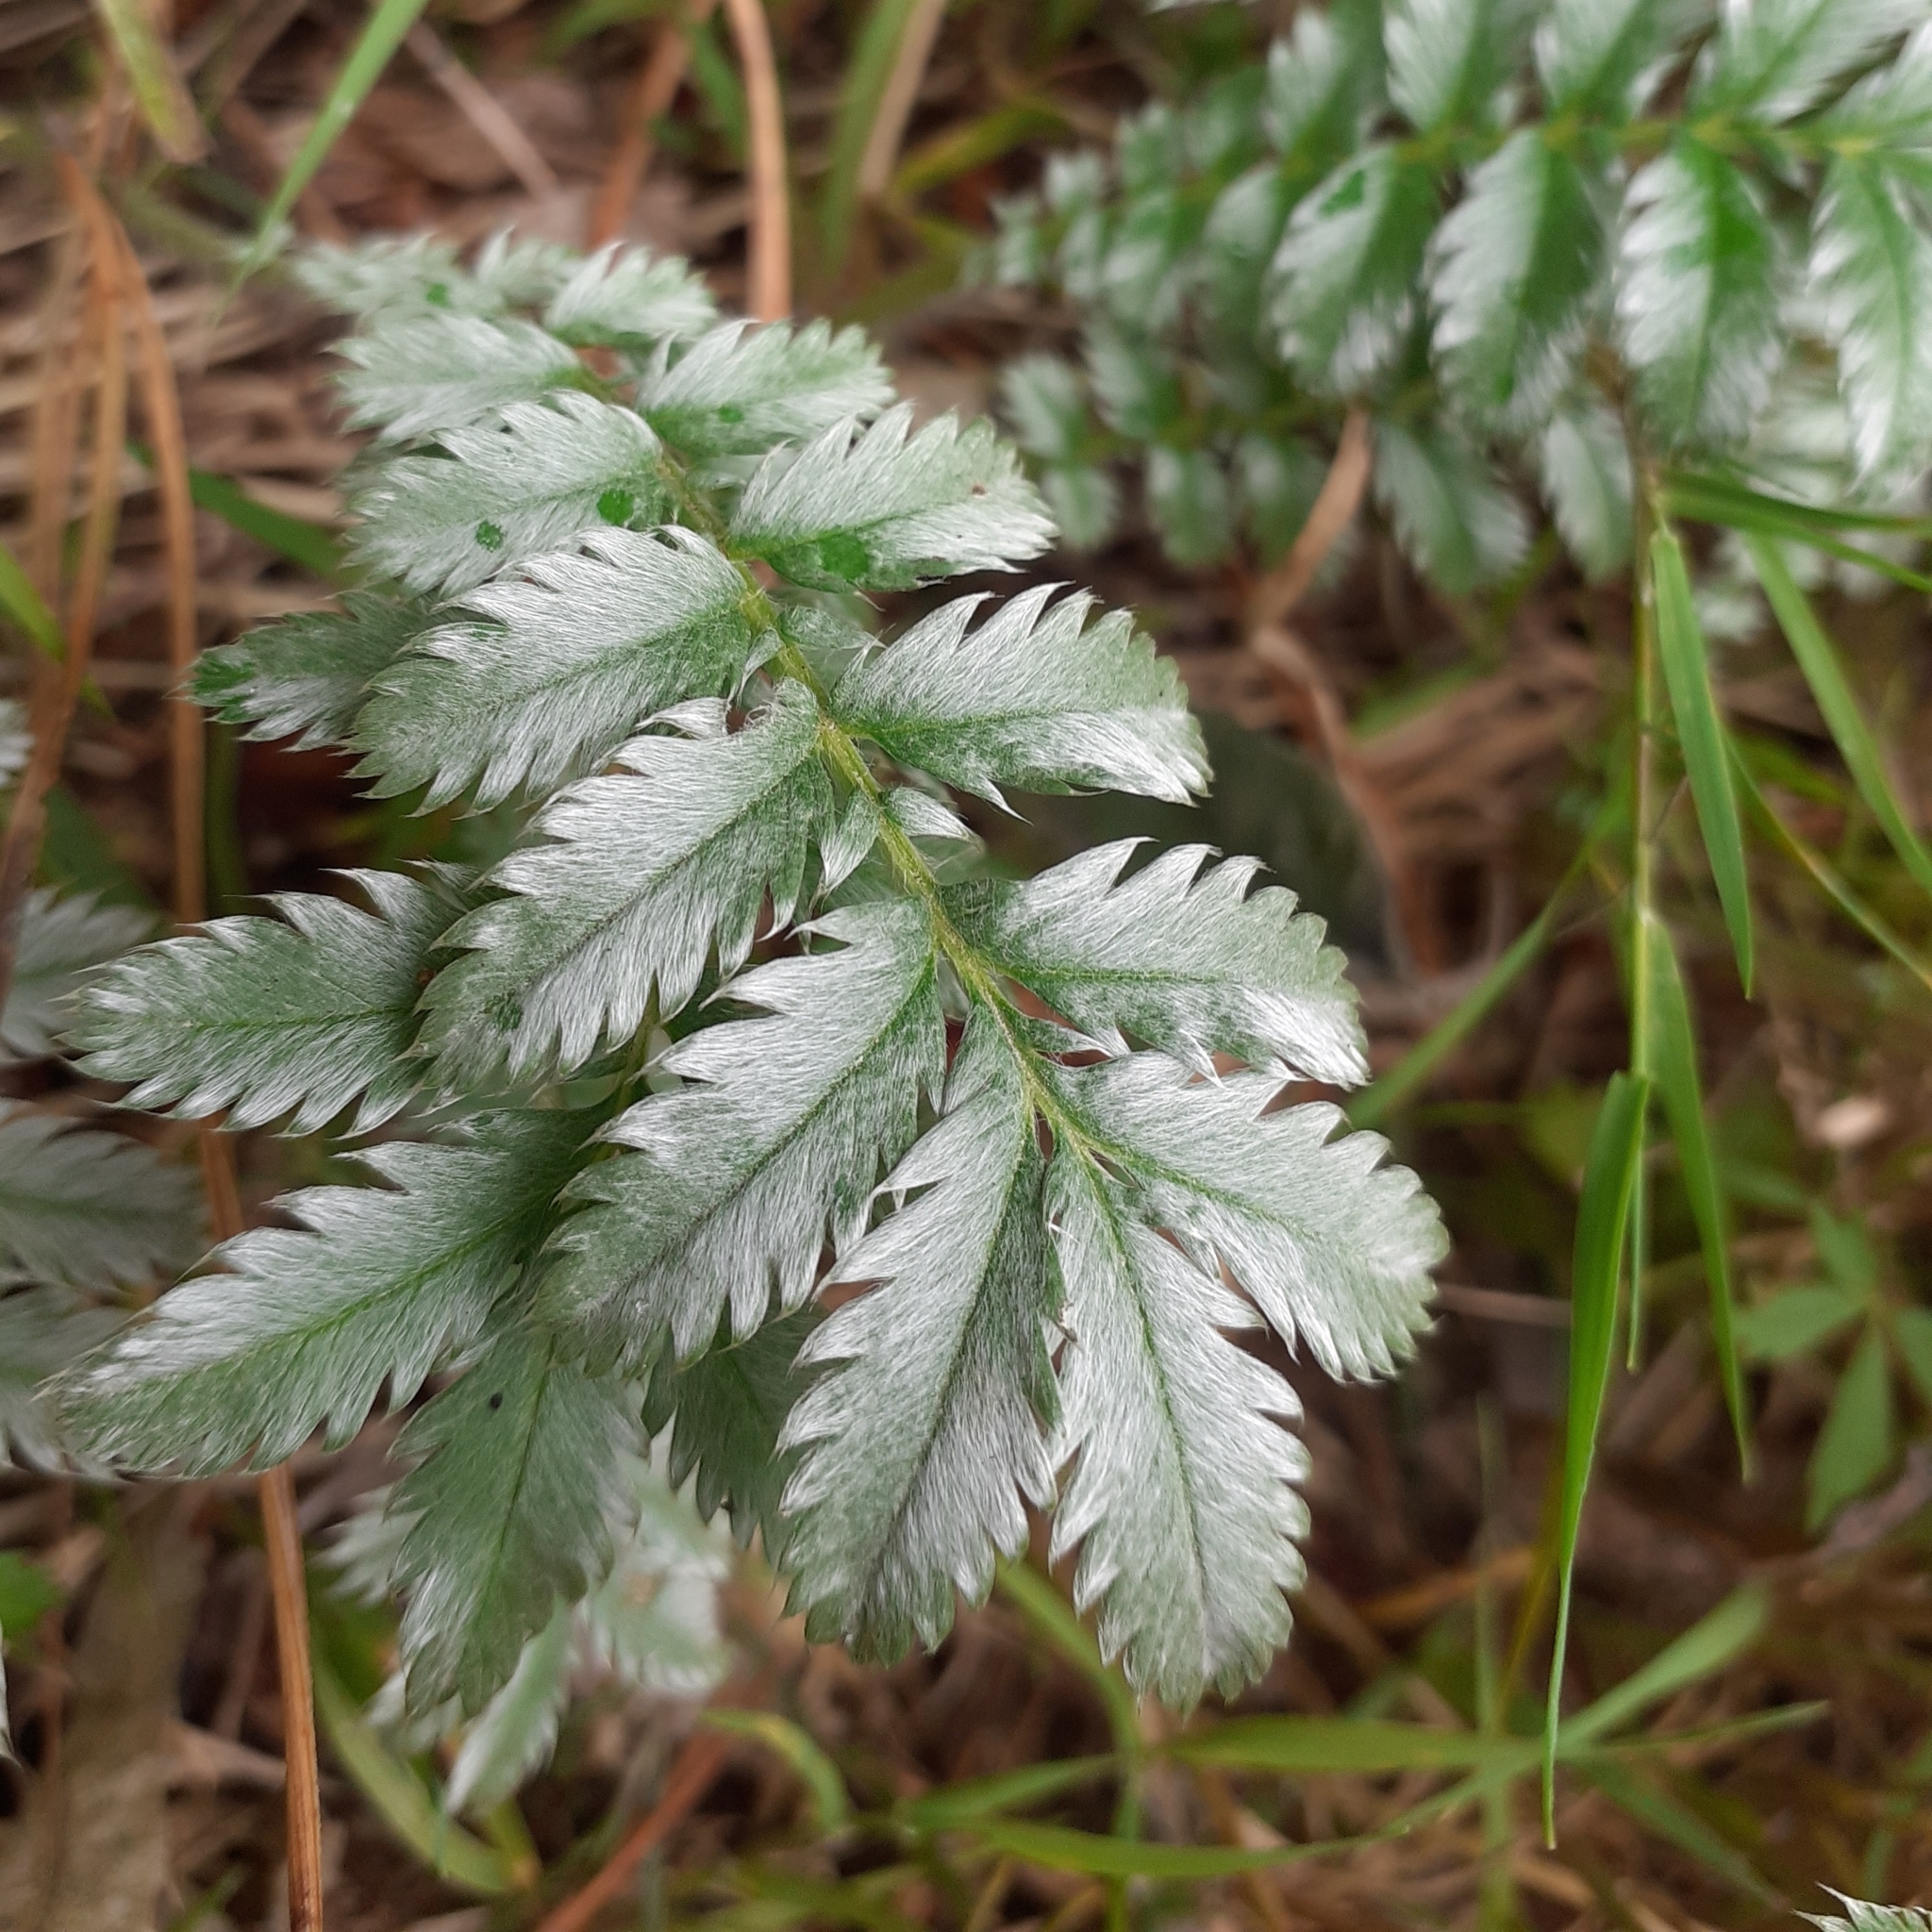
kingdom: Plantae
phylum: Tracheophyta
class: Magnoliopsida
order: Rosales
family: Rosaceae
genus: Argentina
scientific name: Argentina anserina
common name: Common silverweed
